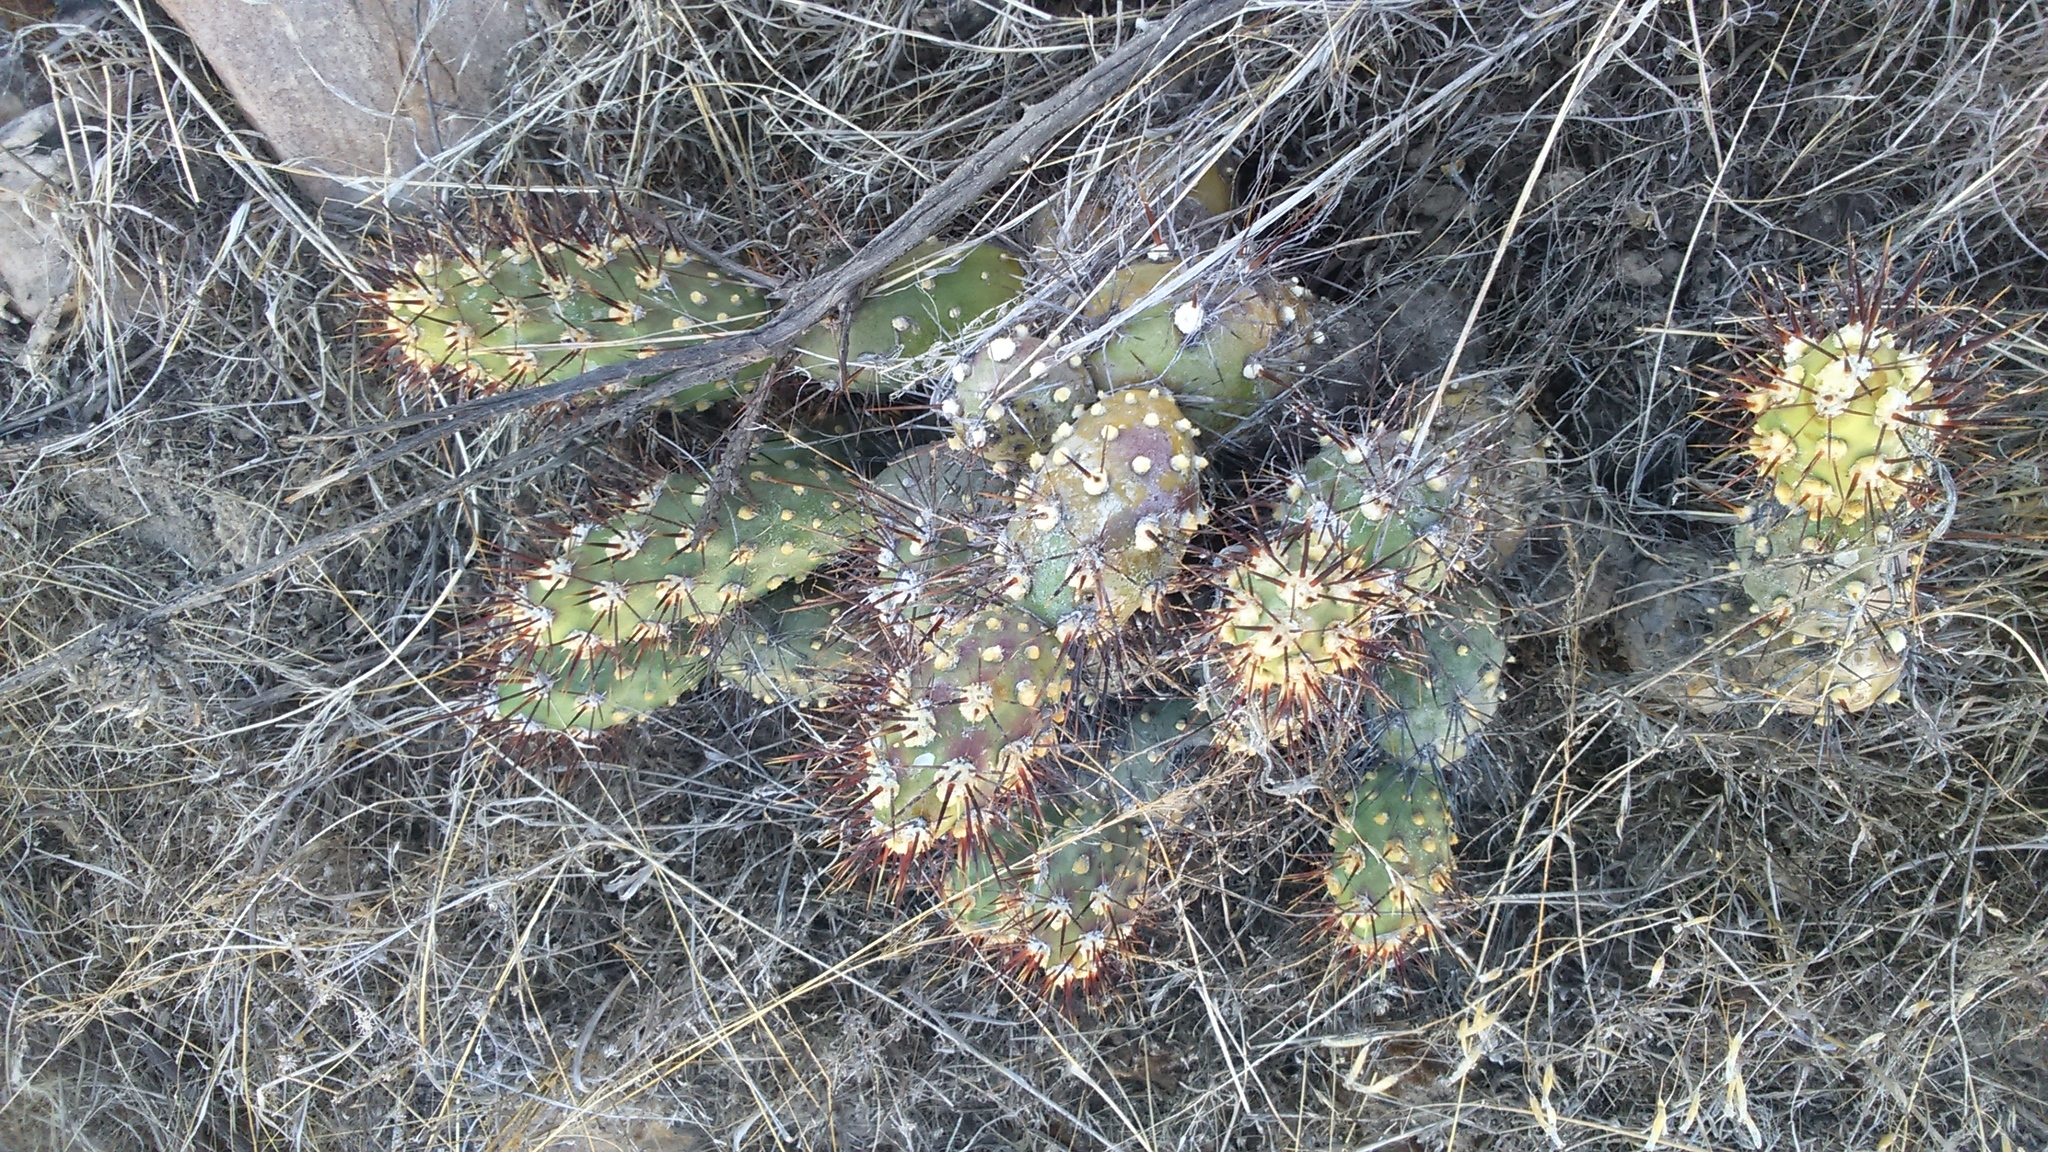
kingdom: Plantae
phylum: Tracheophyta
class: Magnoliopsida
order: Caryophyllales
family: Cactaceae
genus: Cumulopuntia
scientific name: Cumulopuntia leucophaea
